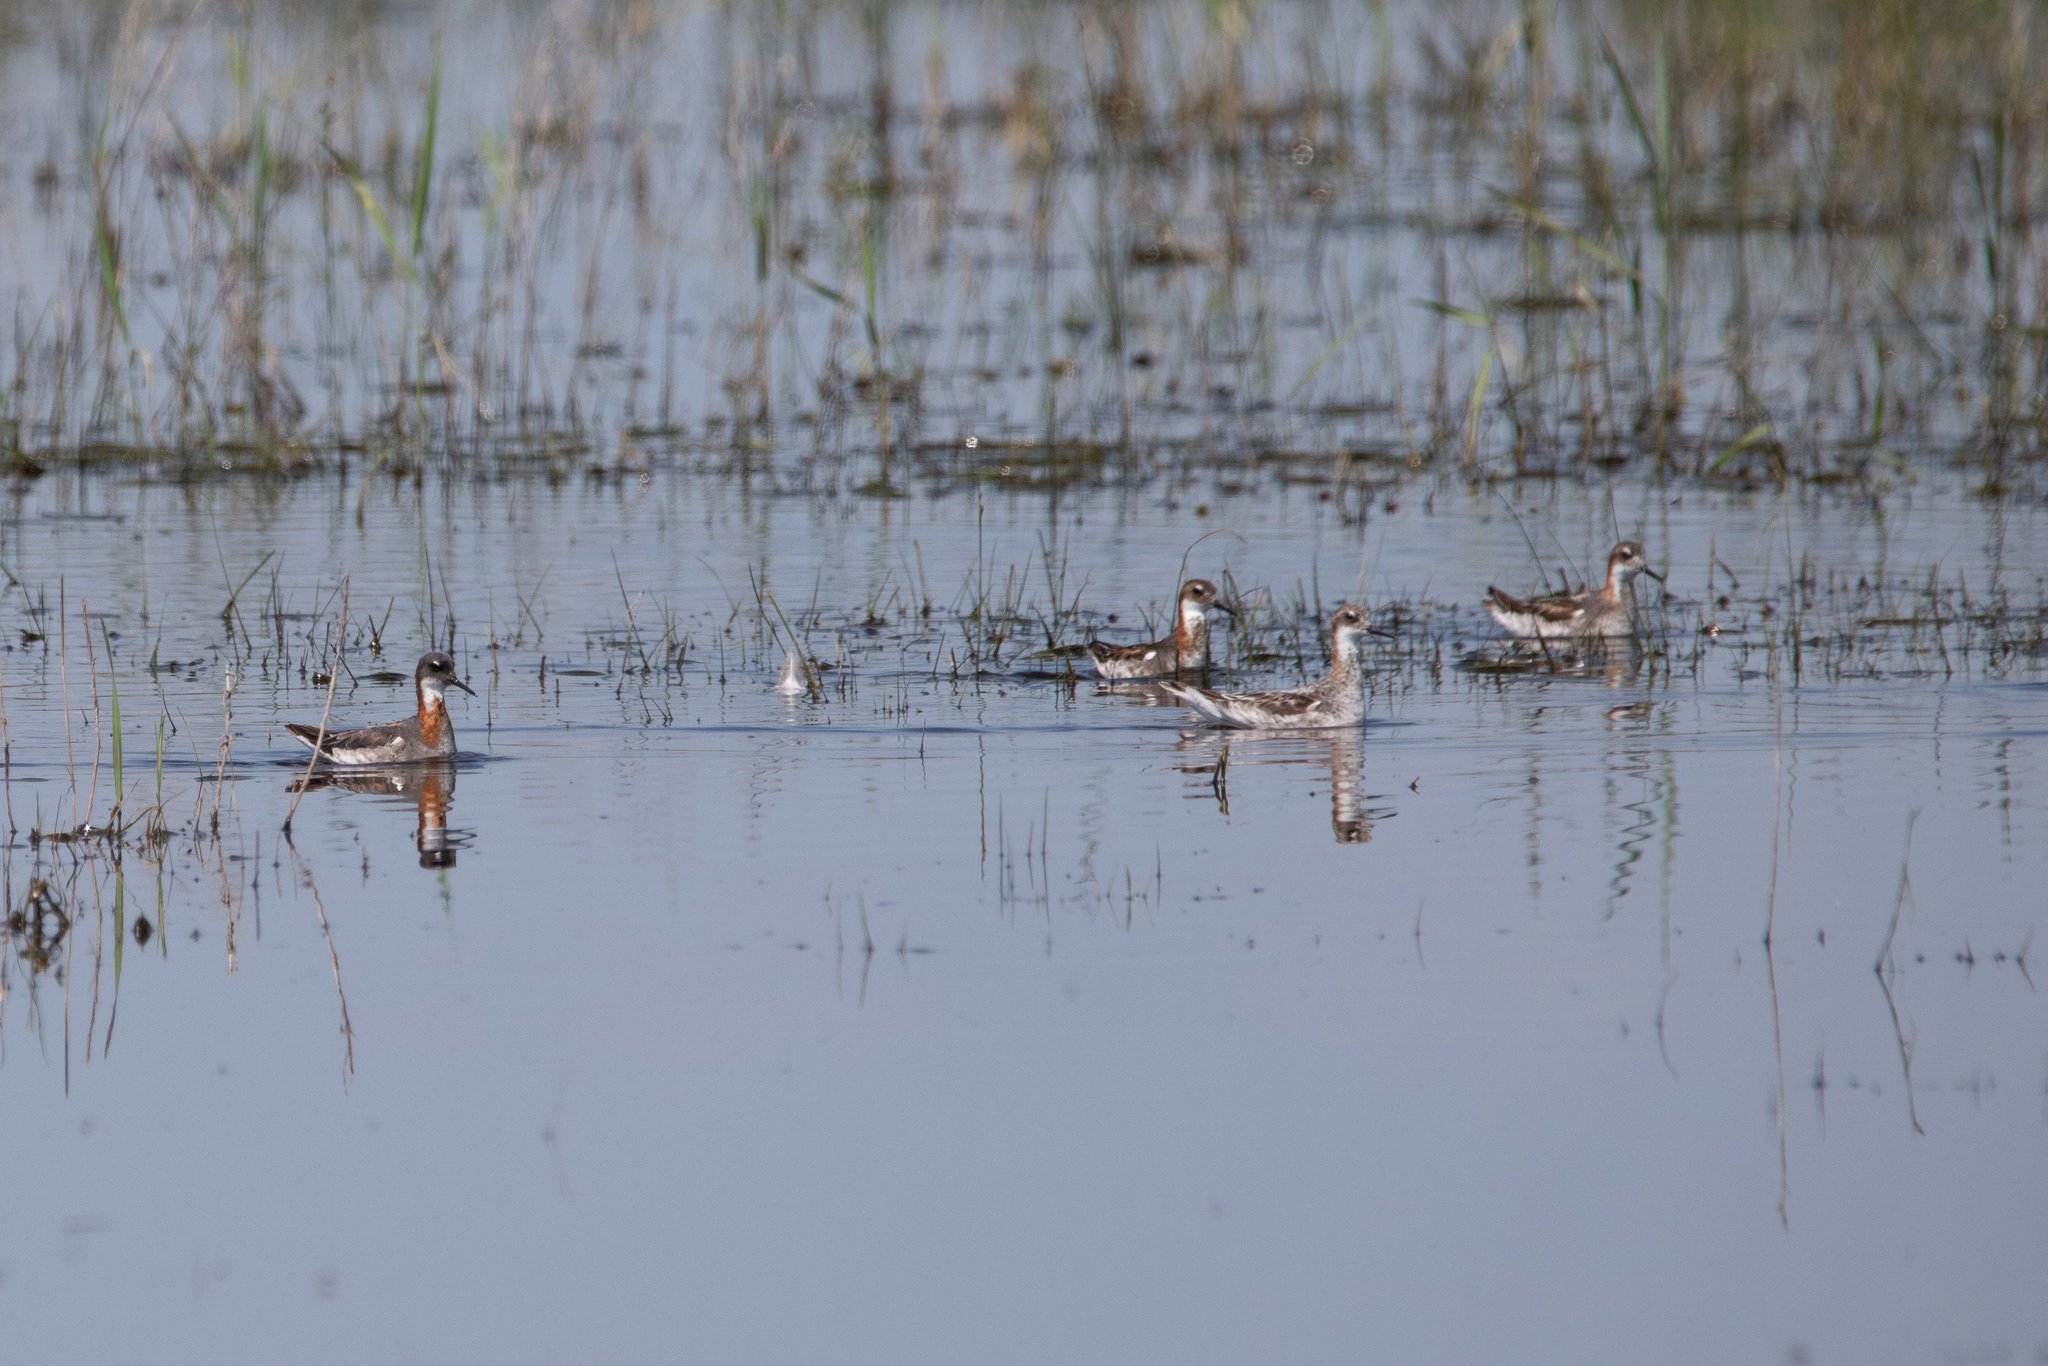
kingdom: Animalia
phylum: Chordata
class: Aves
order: Charadriiformes
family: Scolopacidae
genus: Phalaropus
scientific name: Phalaropus lobatus
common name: Red-necked phalarope
